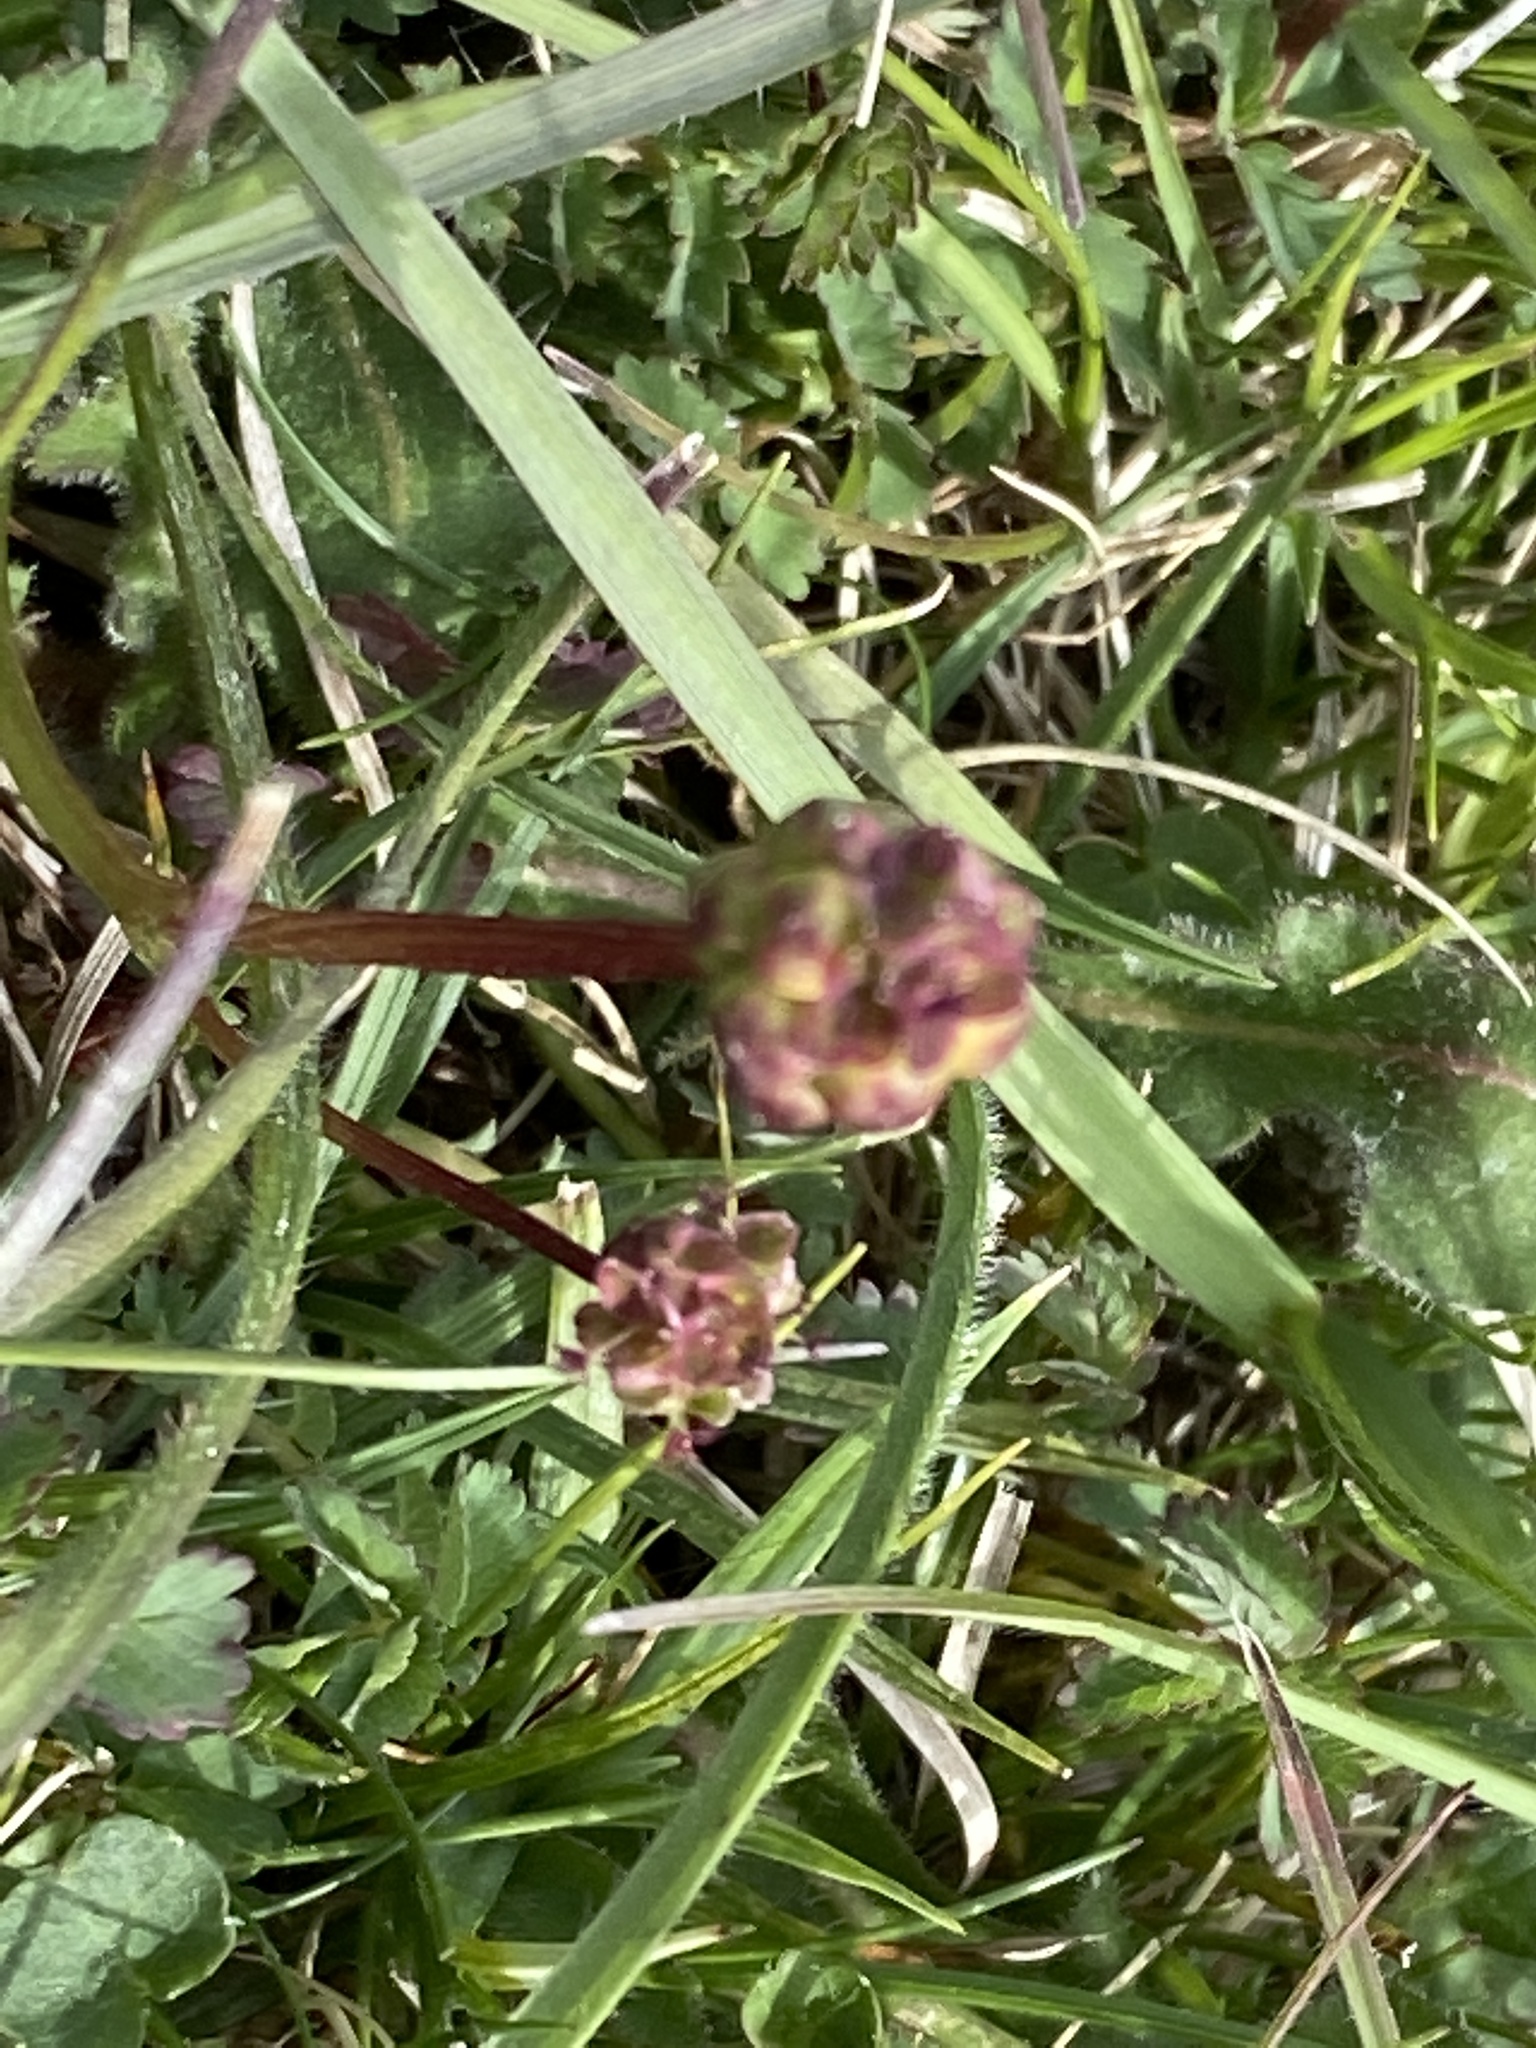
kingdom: Plantae
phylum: Tracheophyta
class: Magnoliopsida
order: Rosales
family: Rosaceae
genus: Poterium
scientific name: Poterium sanguisorba
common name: Salad burnet
